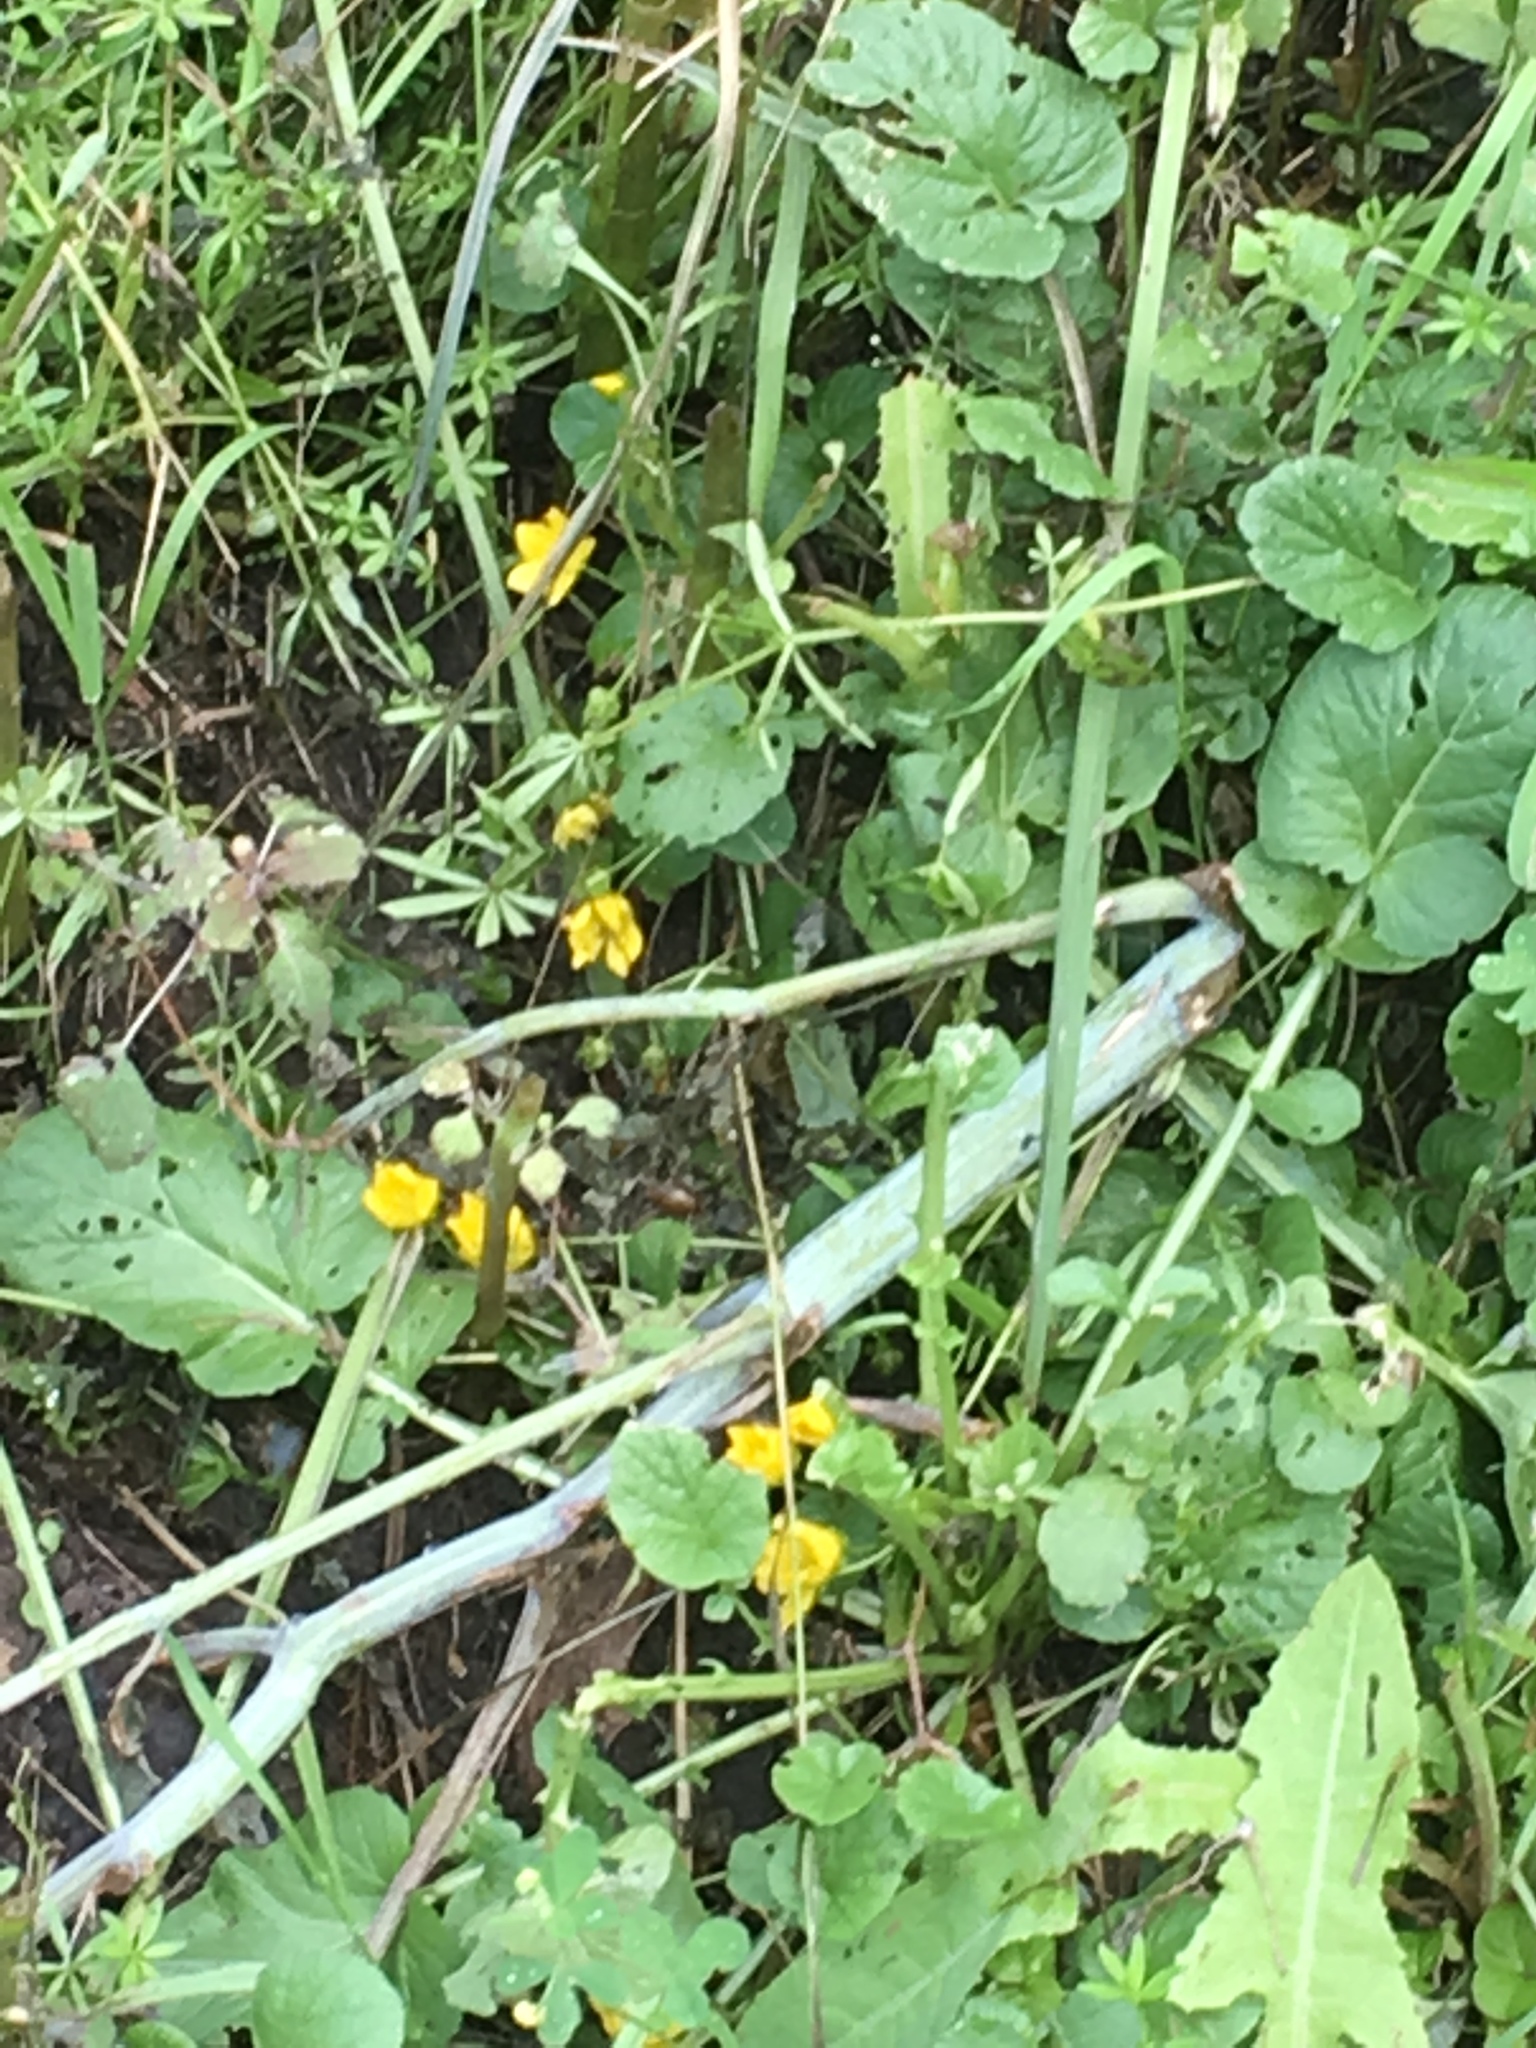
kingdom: Plantae
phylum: Tracheophyta
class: Magnoliopsida
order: Ericales
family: Primulaceae
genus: Lysimachia
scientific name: Lysimachia nummularia
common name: Moneywort
